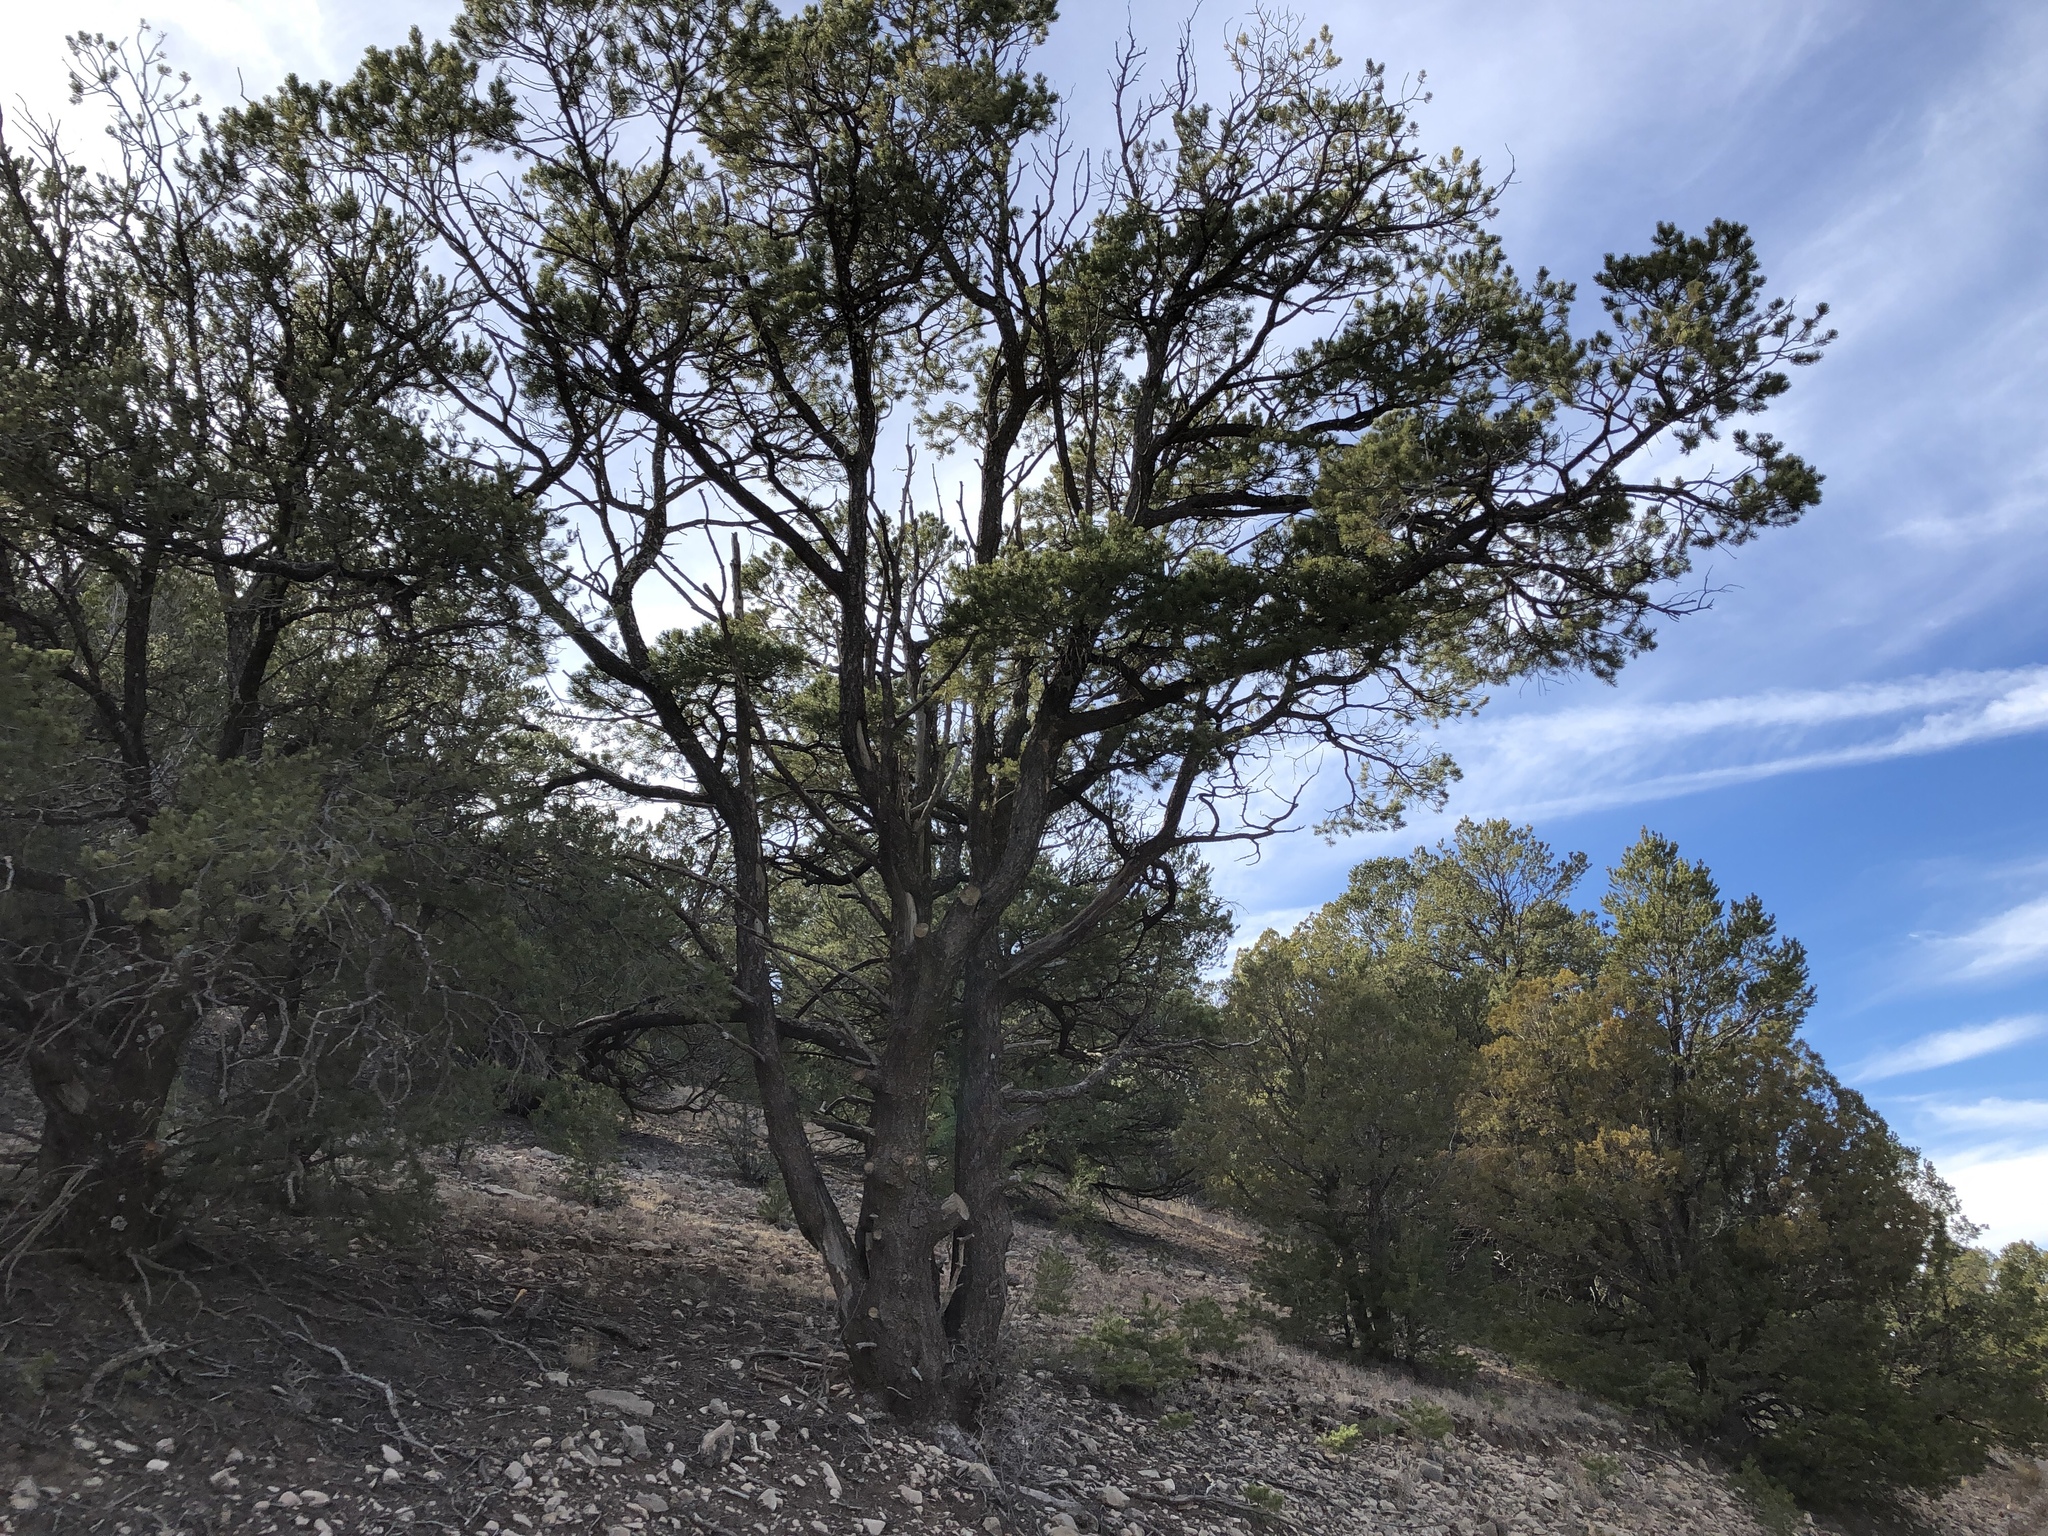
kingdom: Plantae
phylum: Tracheophyta
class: Pinopsida
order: Pinales
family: Pinaceae
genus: Pinus
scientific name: Pinus edulis
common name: Colorado pinyon
